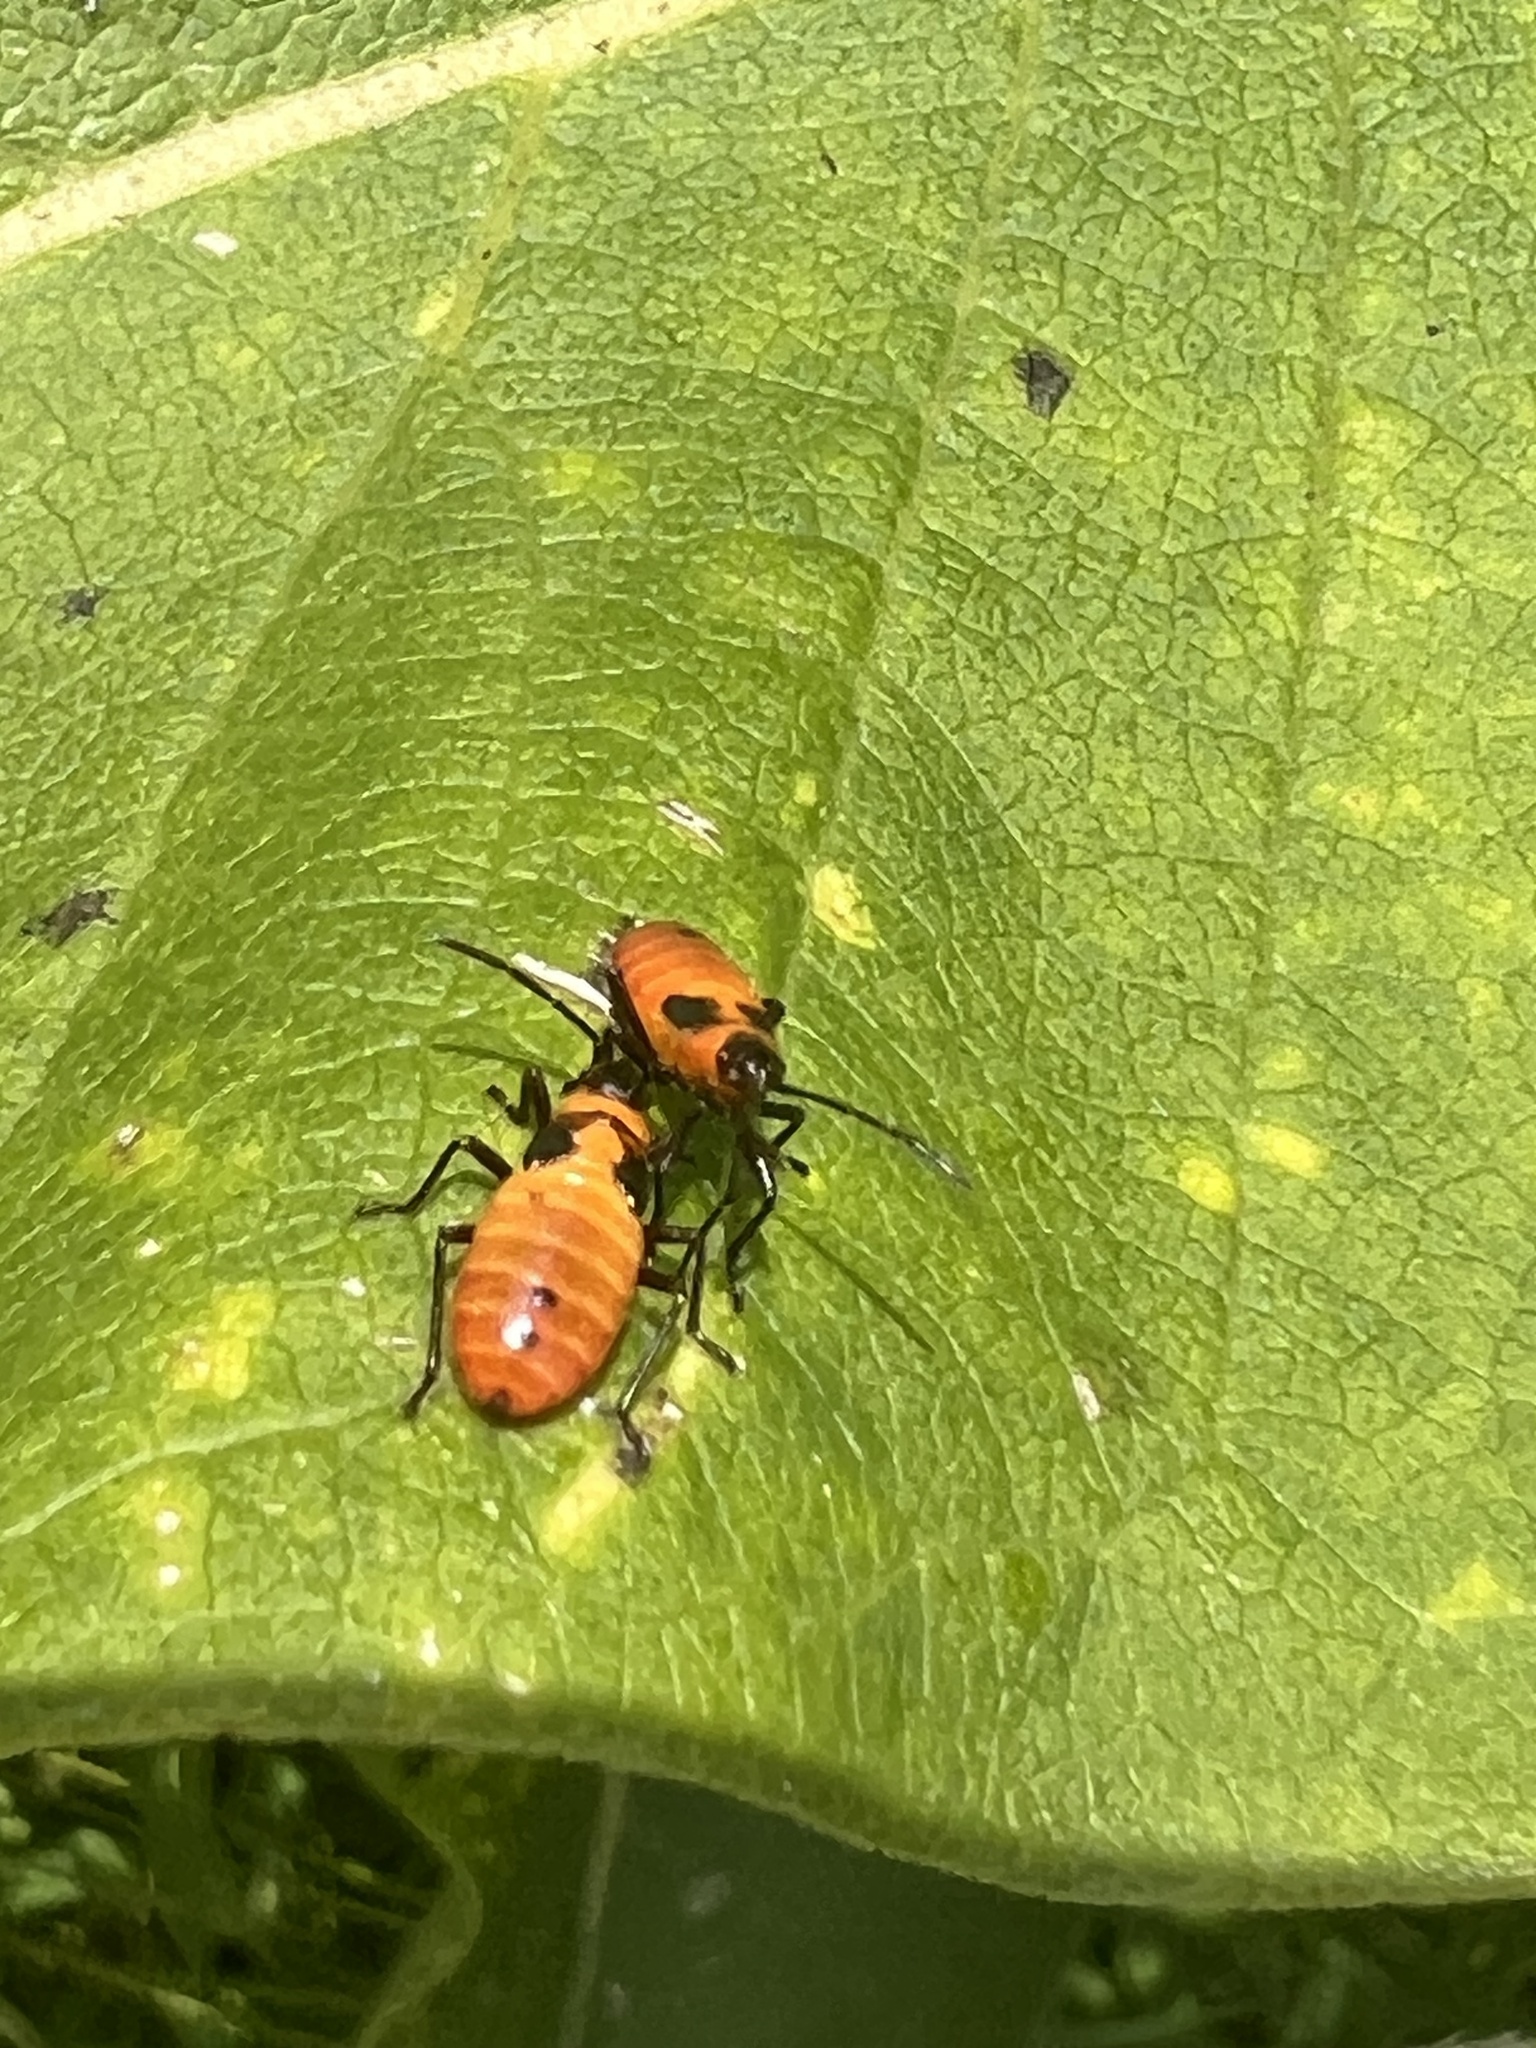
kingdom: Animalia
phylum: Arthropoda
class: Insecta
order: Hemiptera
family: Lygaeidae
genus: Oncopeltus
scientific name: Oncopeltus fasciatus
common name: Large milkweed bug
